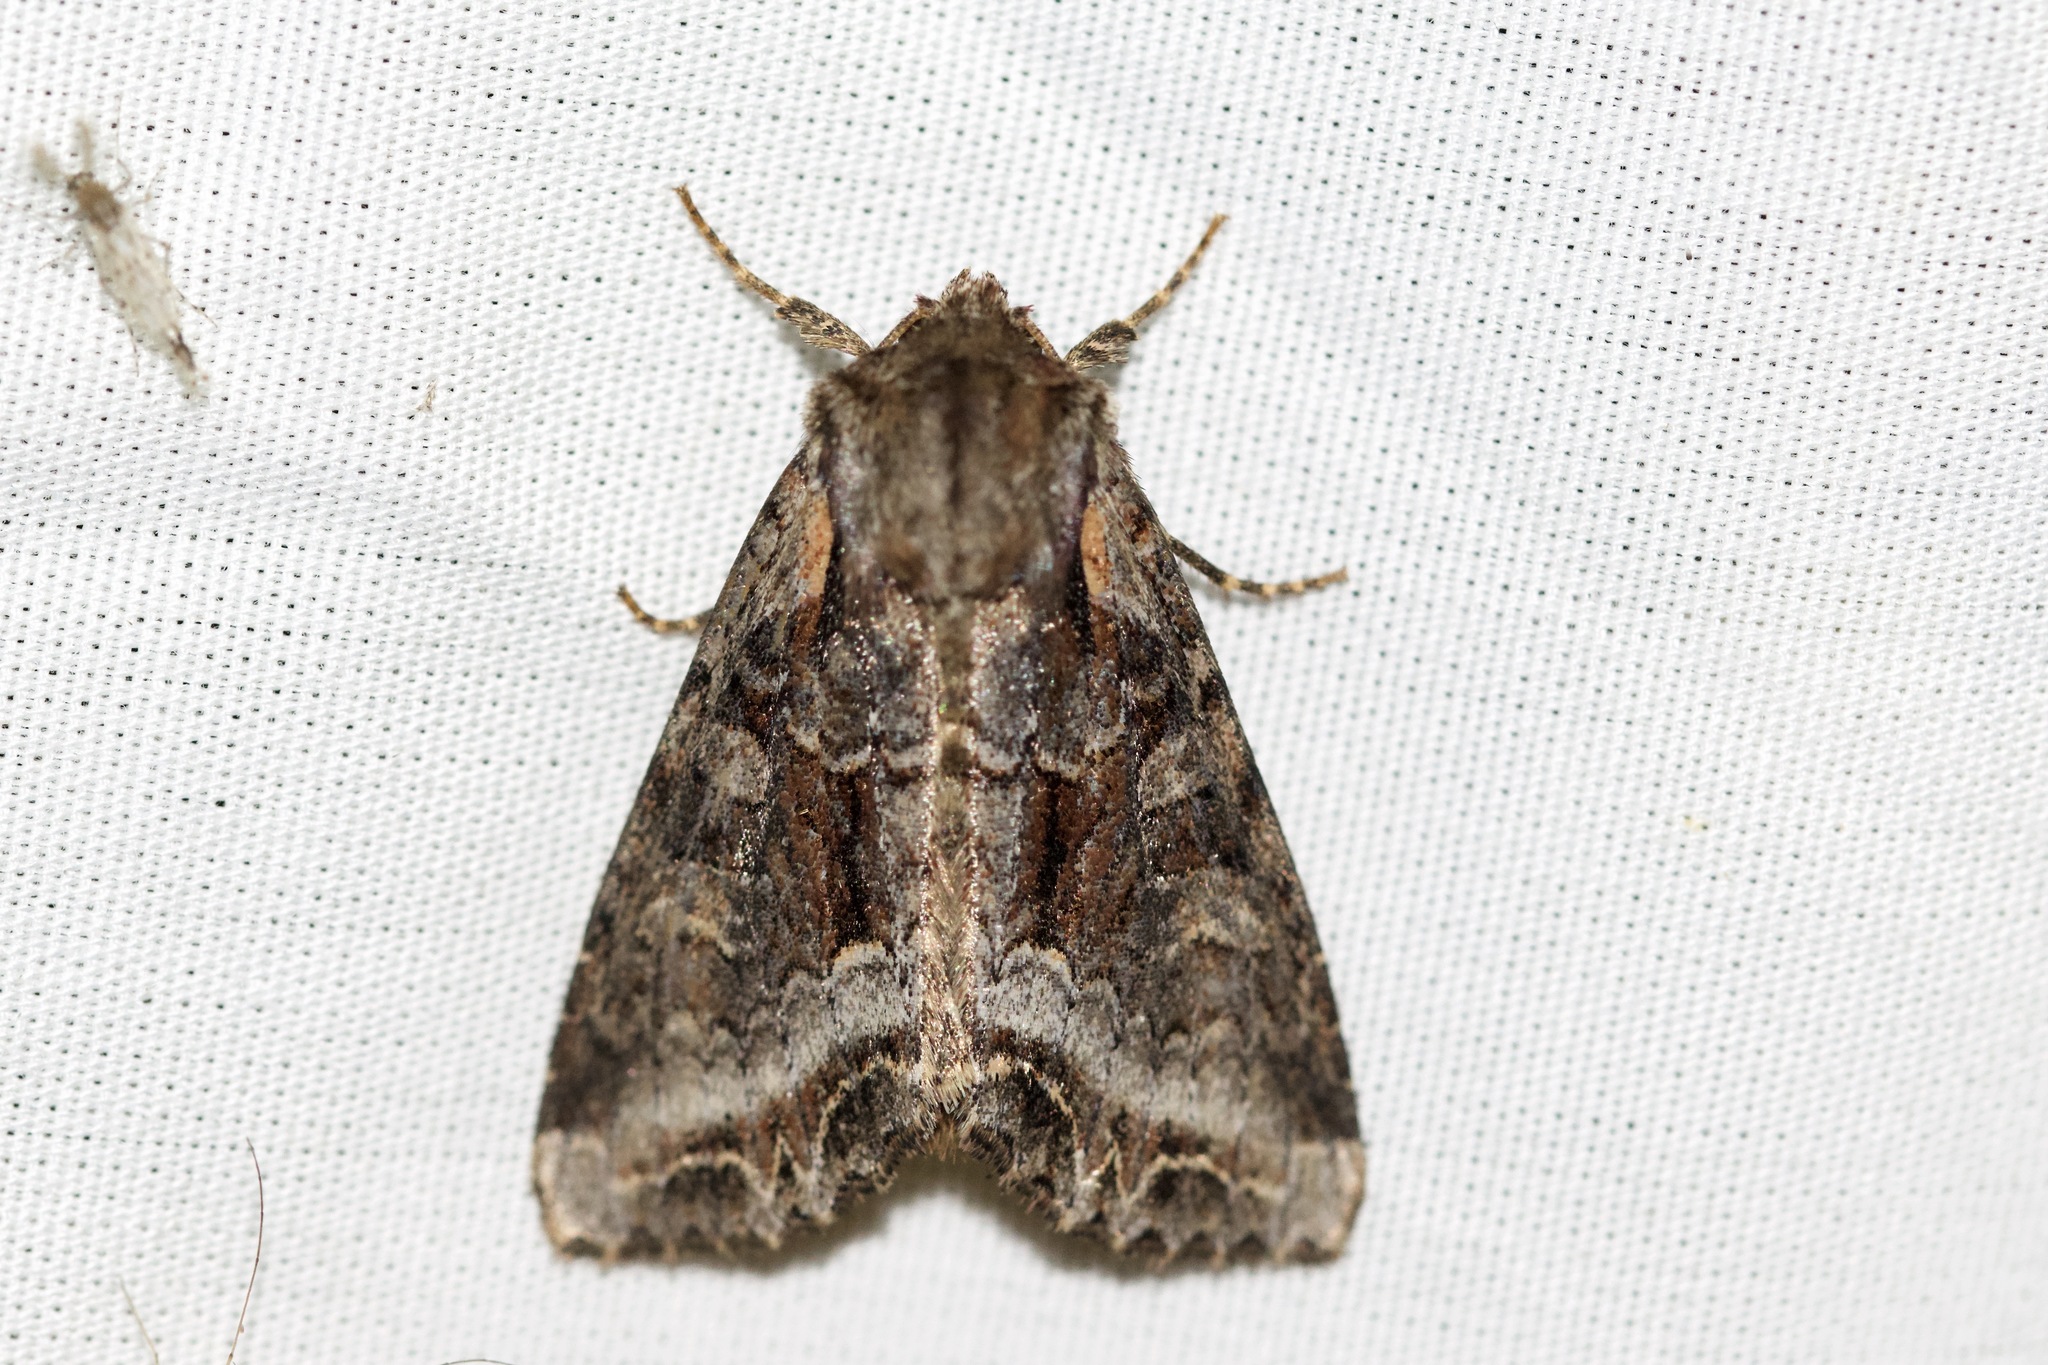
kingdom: Animalia
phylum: Arthropoda
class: Insecta
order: Lepidoptera
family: Noctuidae
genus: Lacanobia
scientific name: Lacanobia grandis
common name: Grand arches moth
